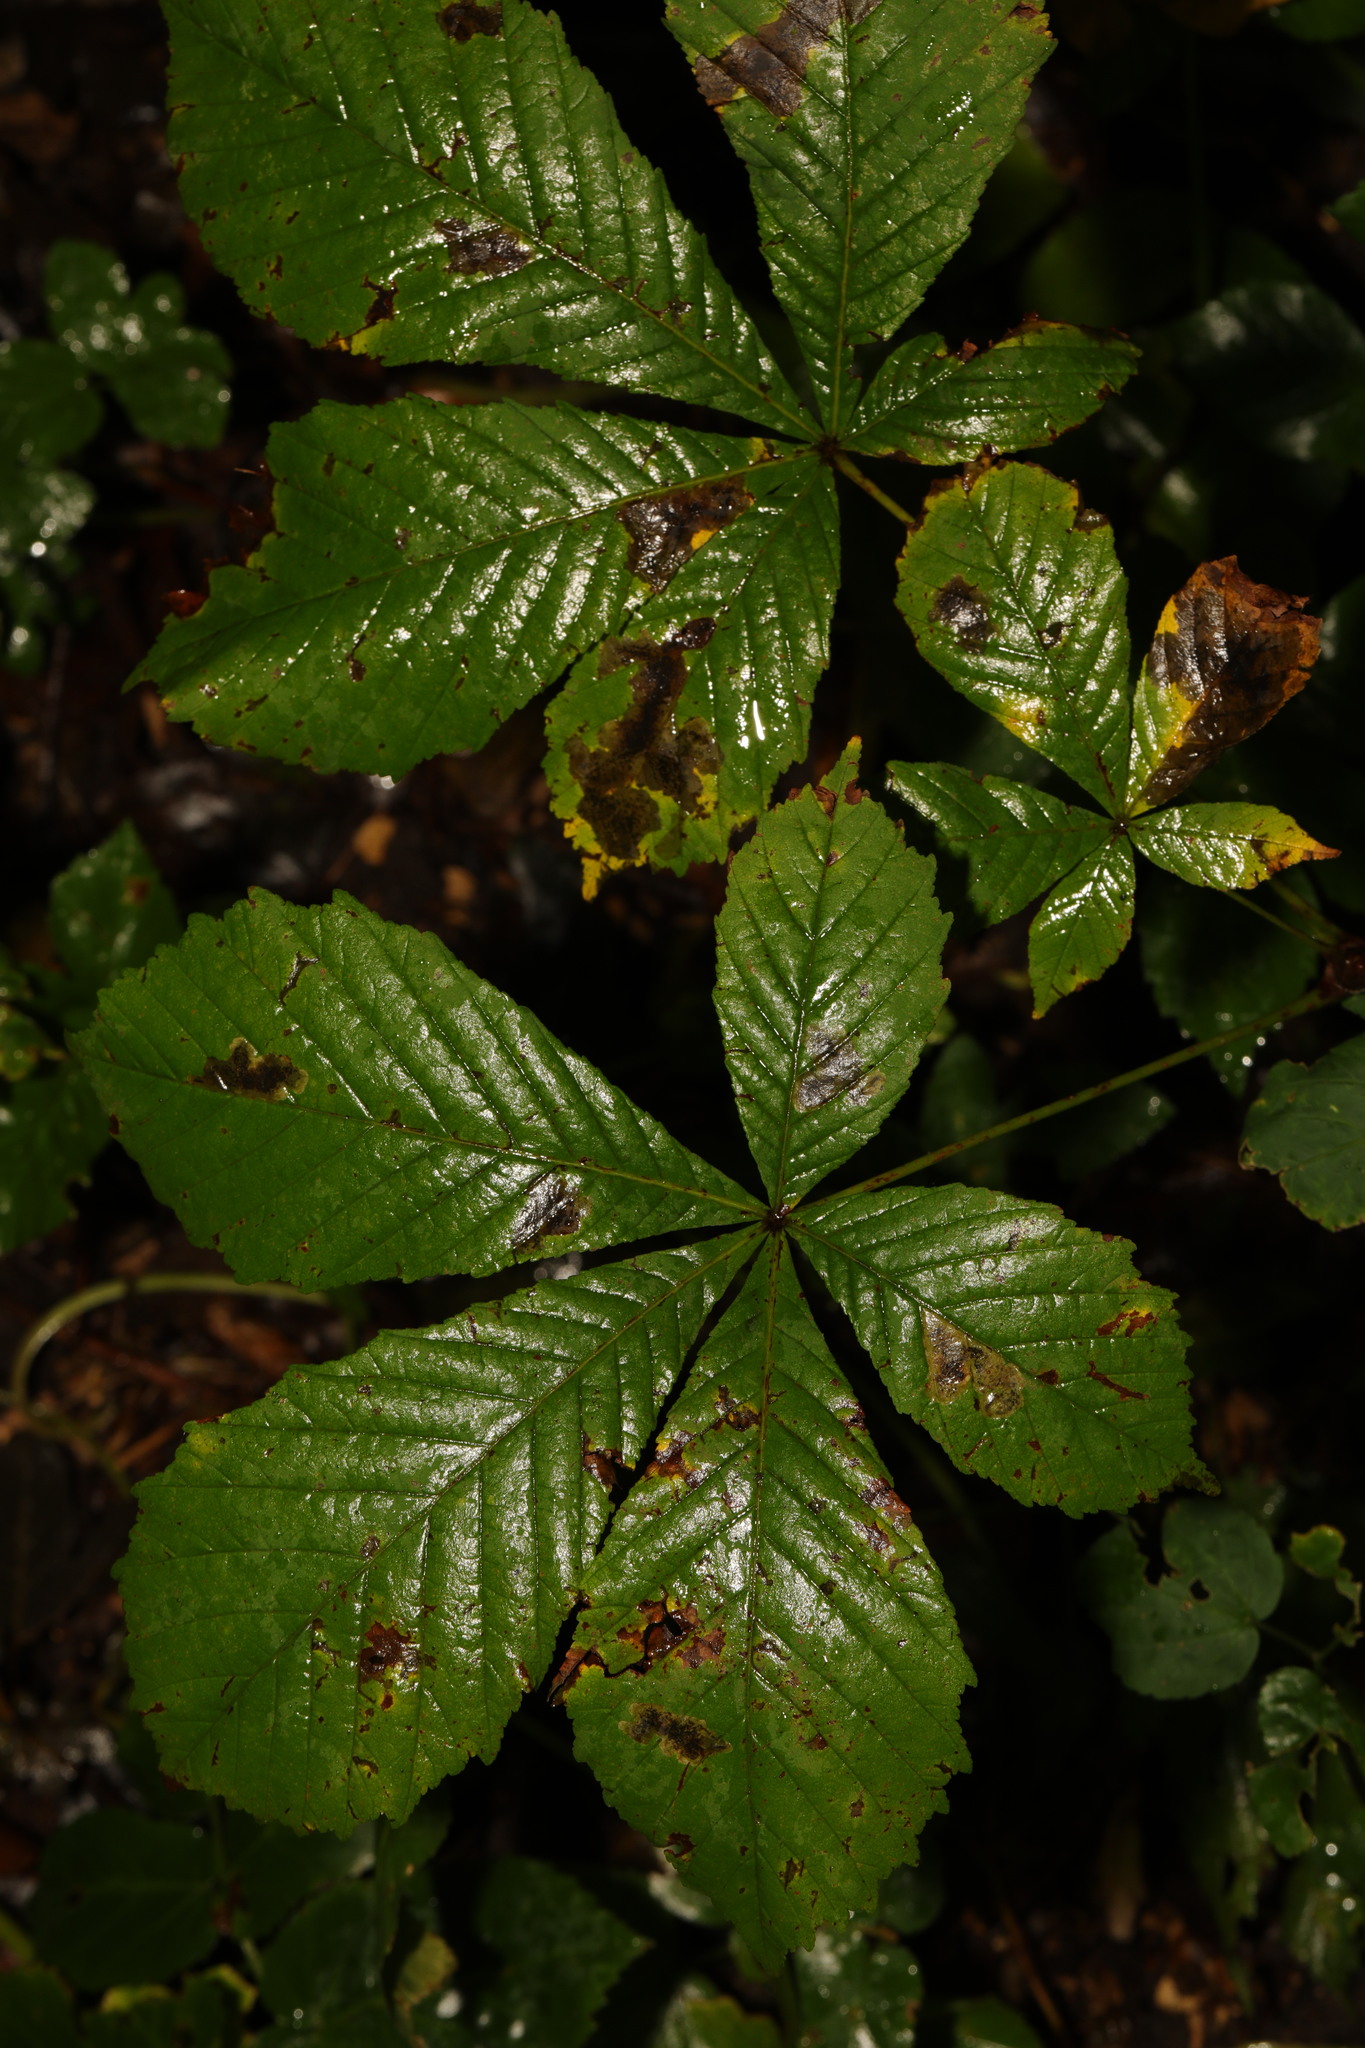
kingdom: Plantae
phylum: Tracheophyta
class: Magnoliopsida
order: Sapindales
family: Sapindaceae
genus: Aesculus
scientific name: Aesculus hippocastanum
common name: Horse-chestnut
